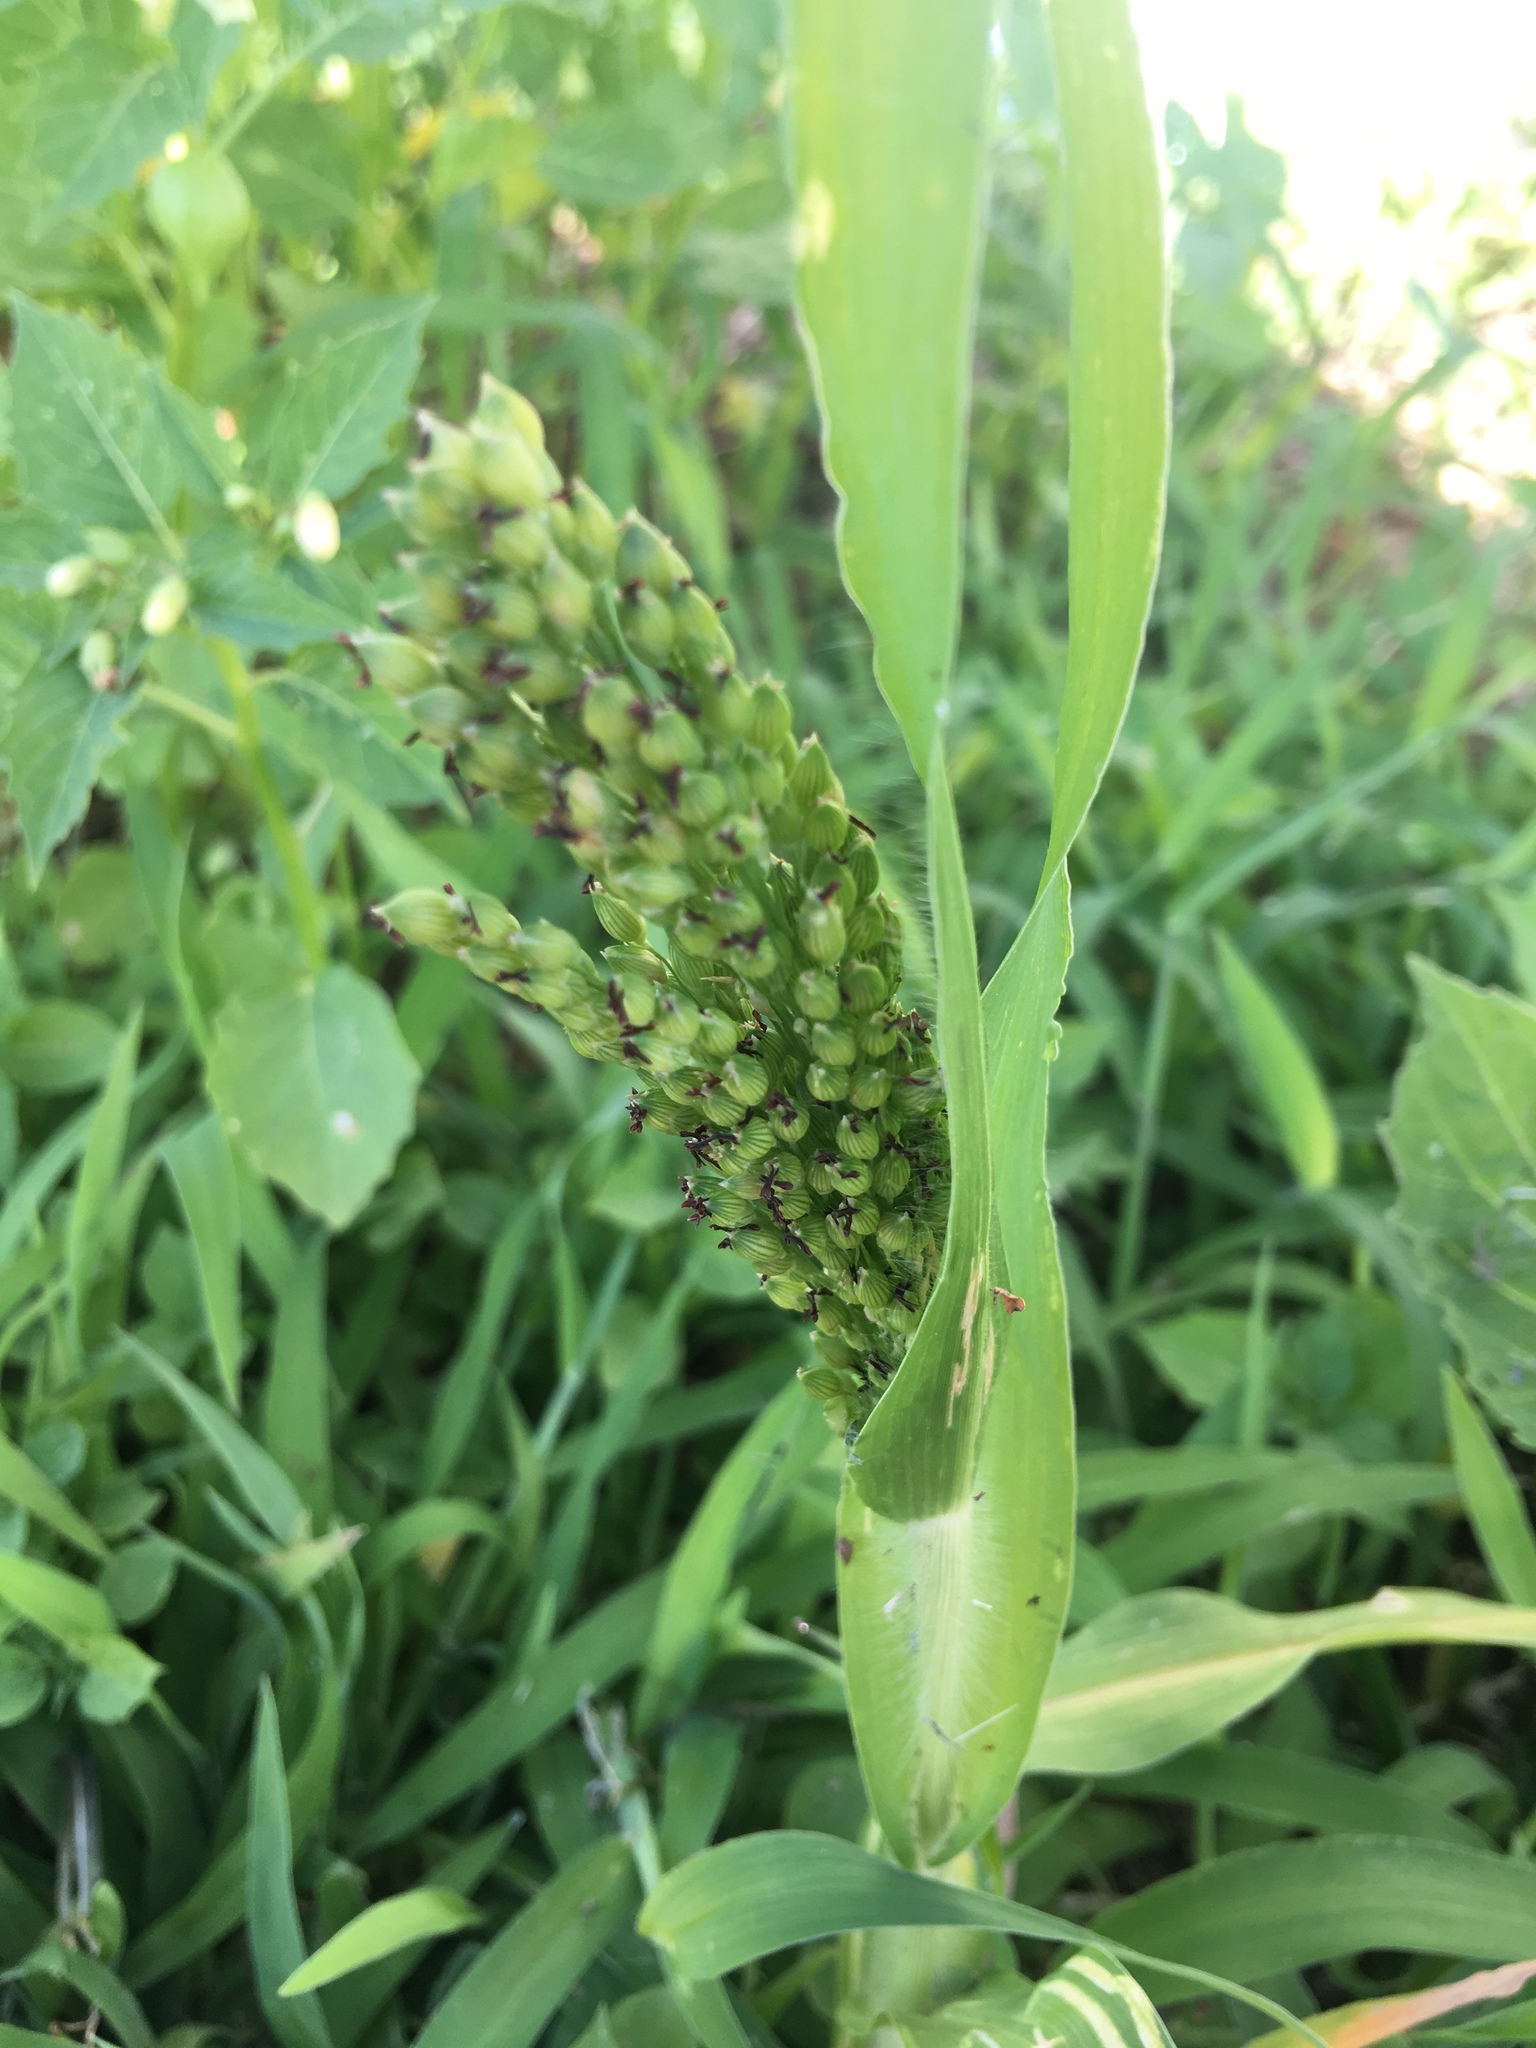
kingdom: Plantae
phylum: Tracheophyta
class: Liliopsida
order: Poales
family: Poaceae
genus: Sorghum
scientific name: Sorghum bicolor
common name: Sorghum
